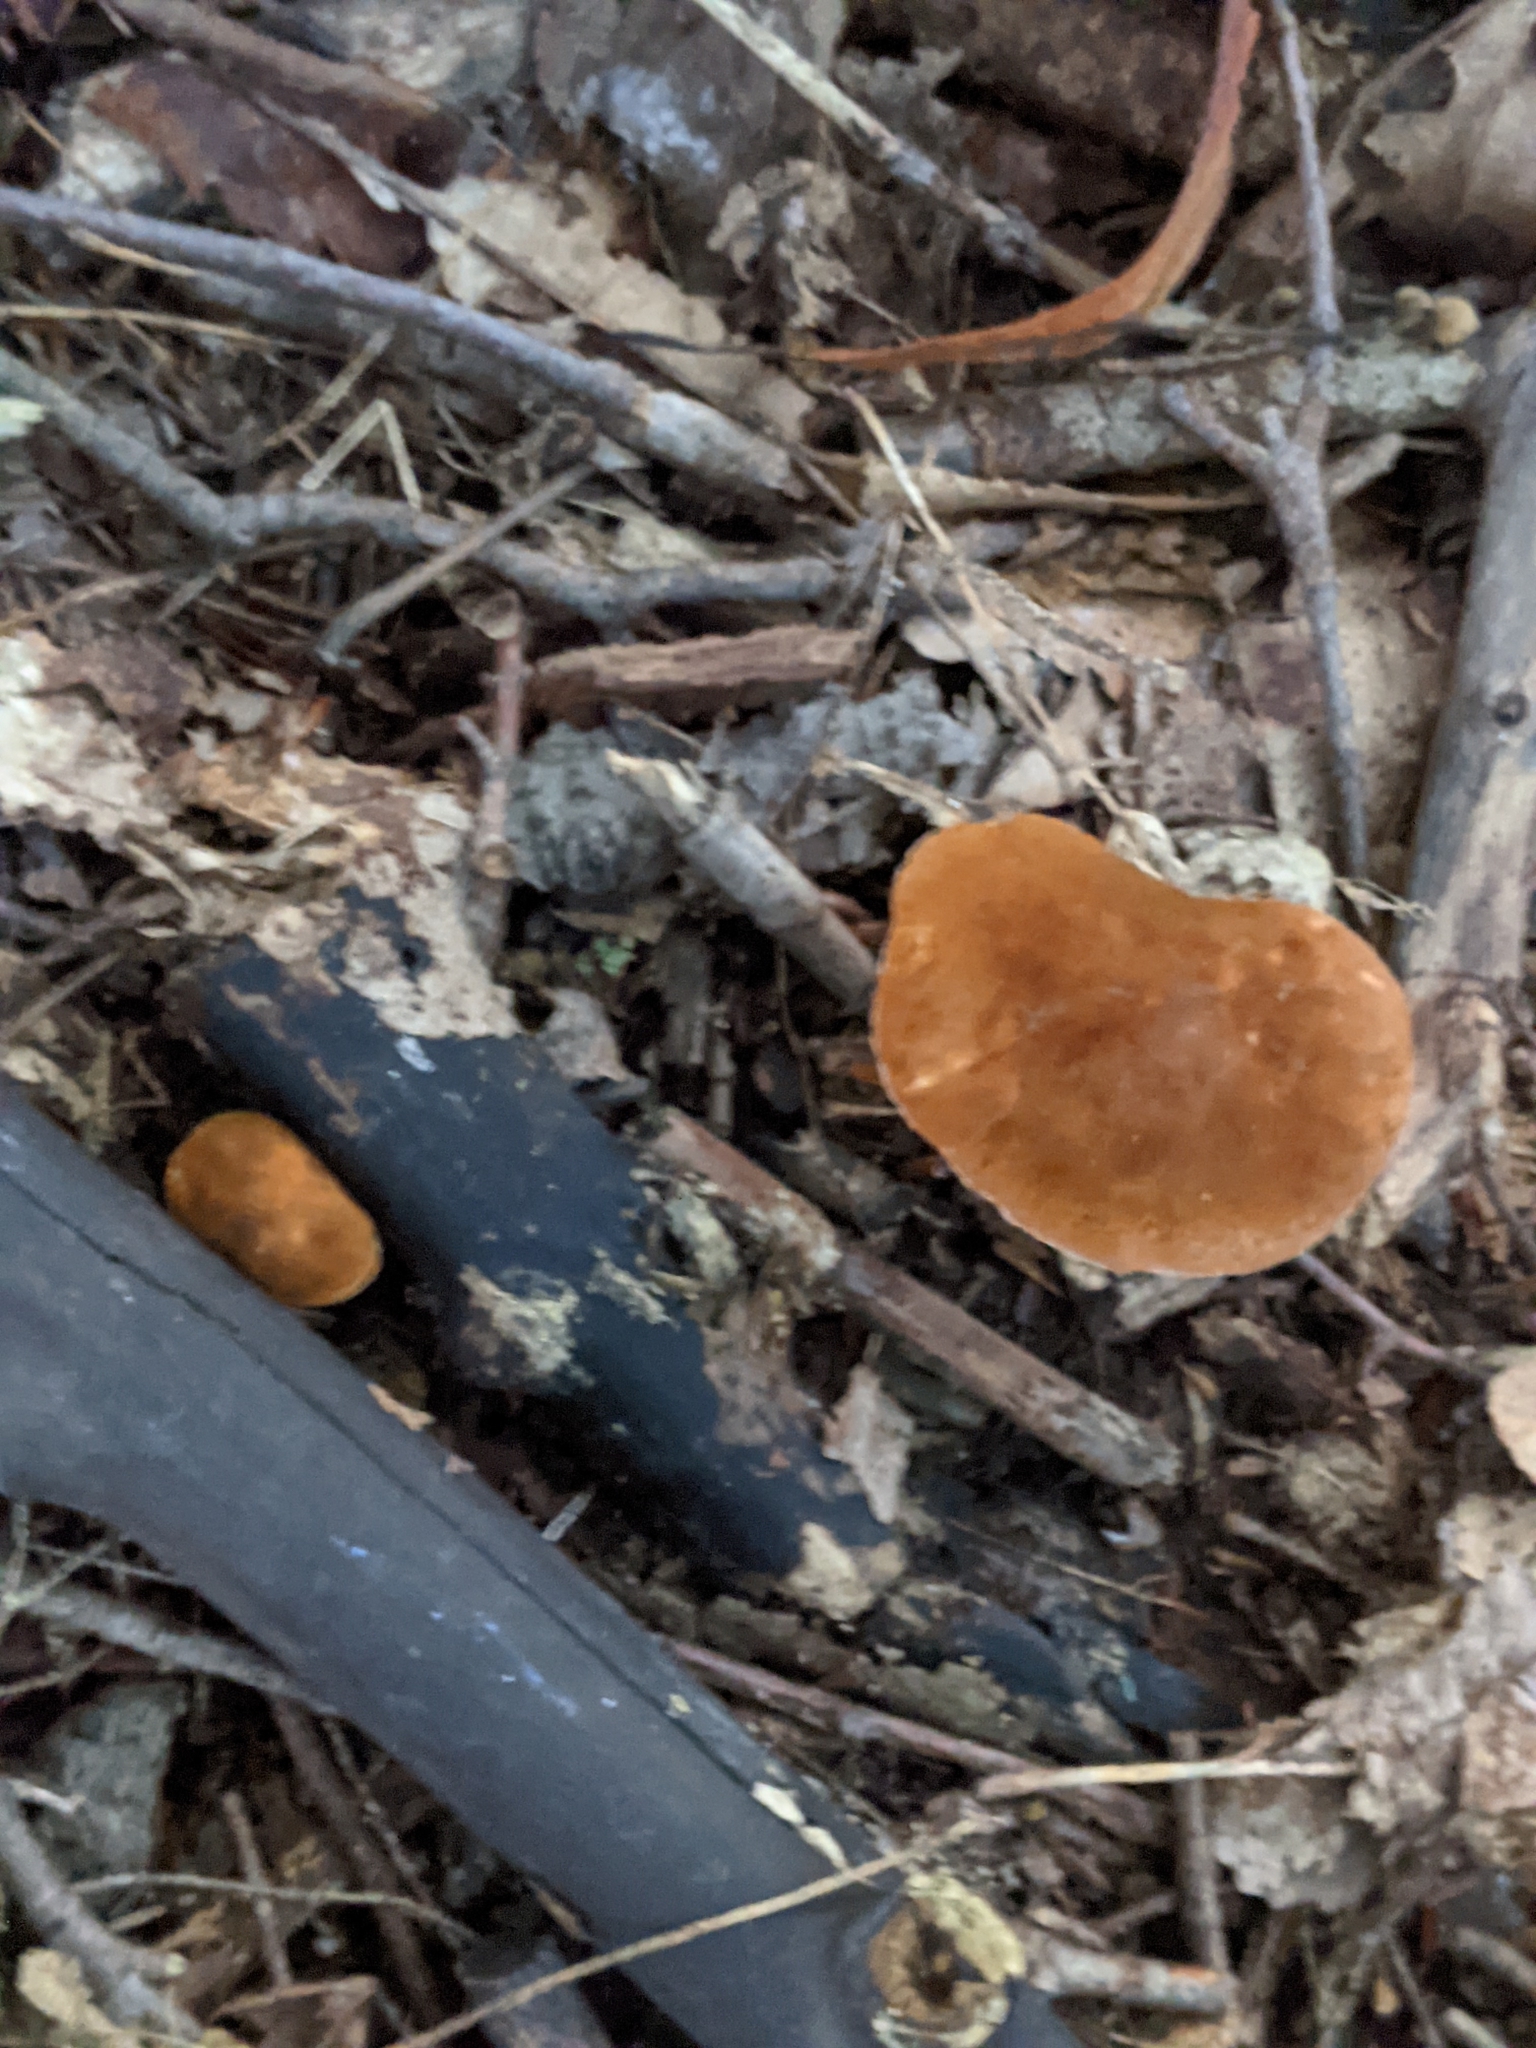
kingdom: Fungi
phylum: Basidiomycota
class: Agaricomycetes
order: Boletales
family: Gyroporaceae
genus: Gyroporus
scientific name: Gyroporus castaneus
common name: Chestnut bolete
